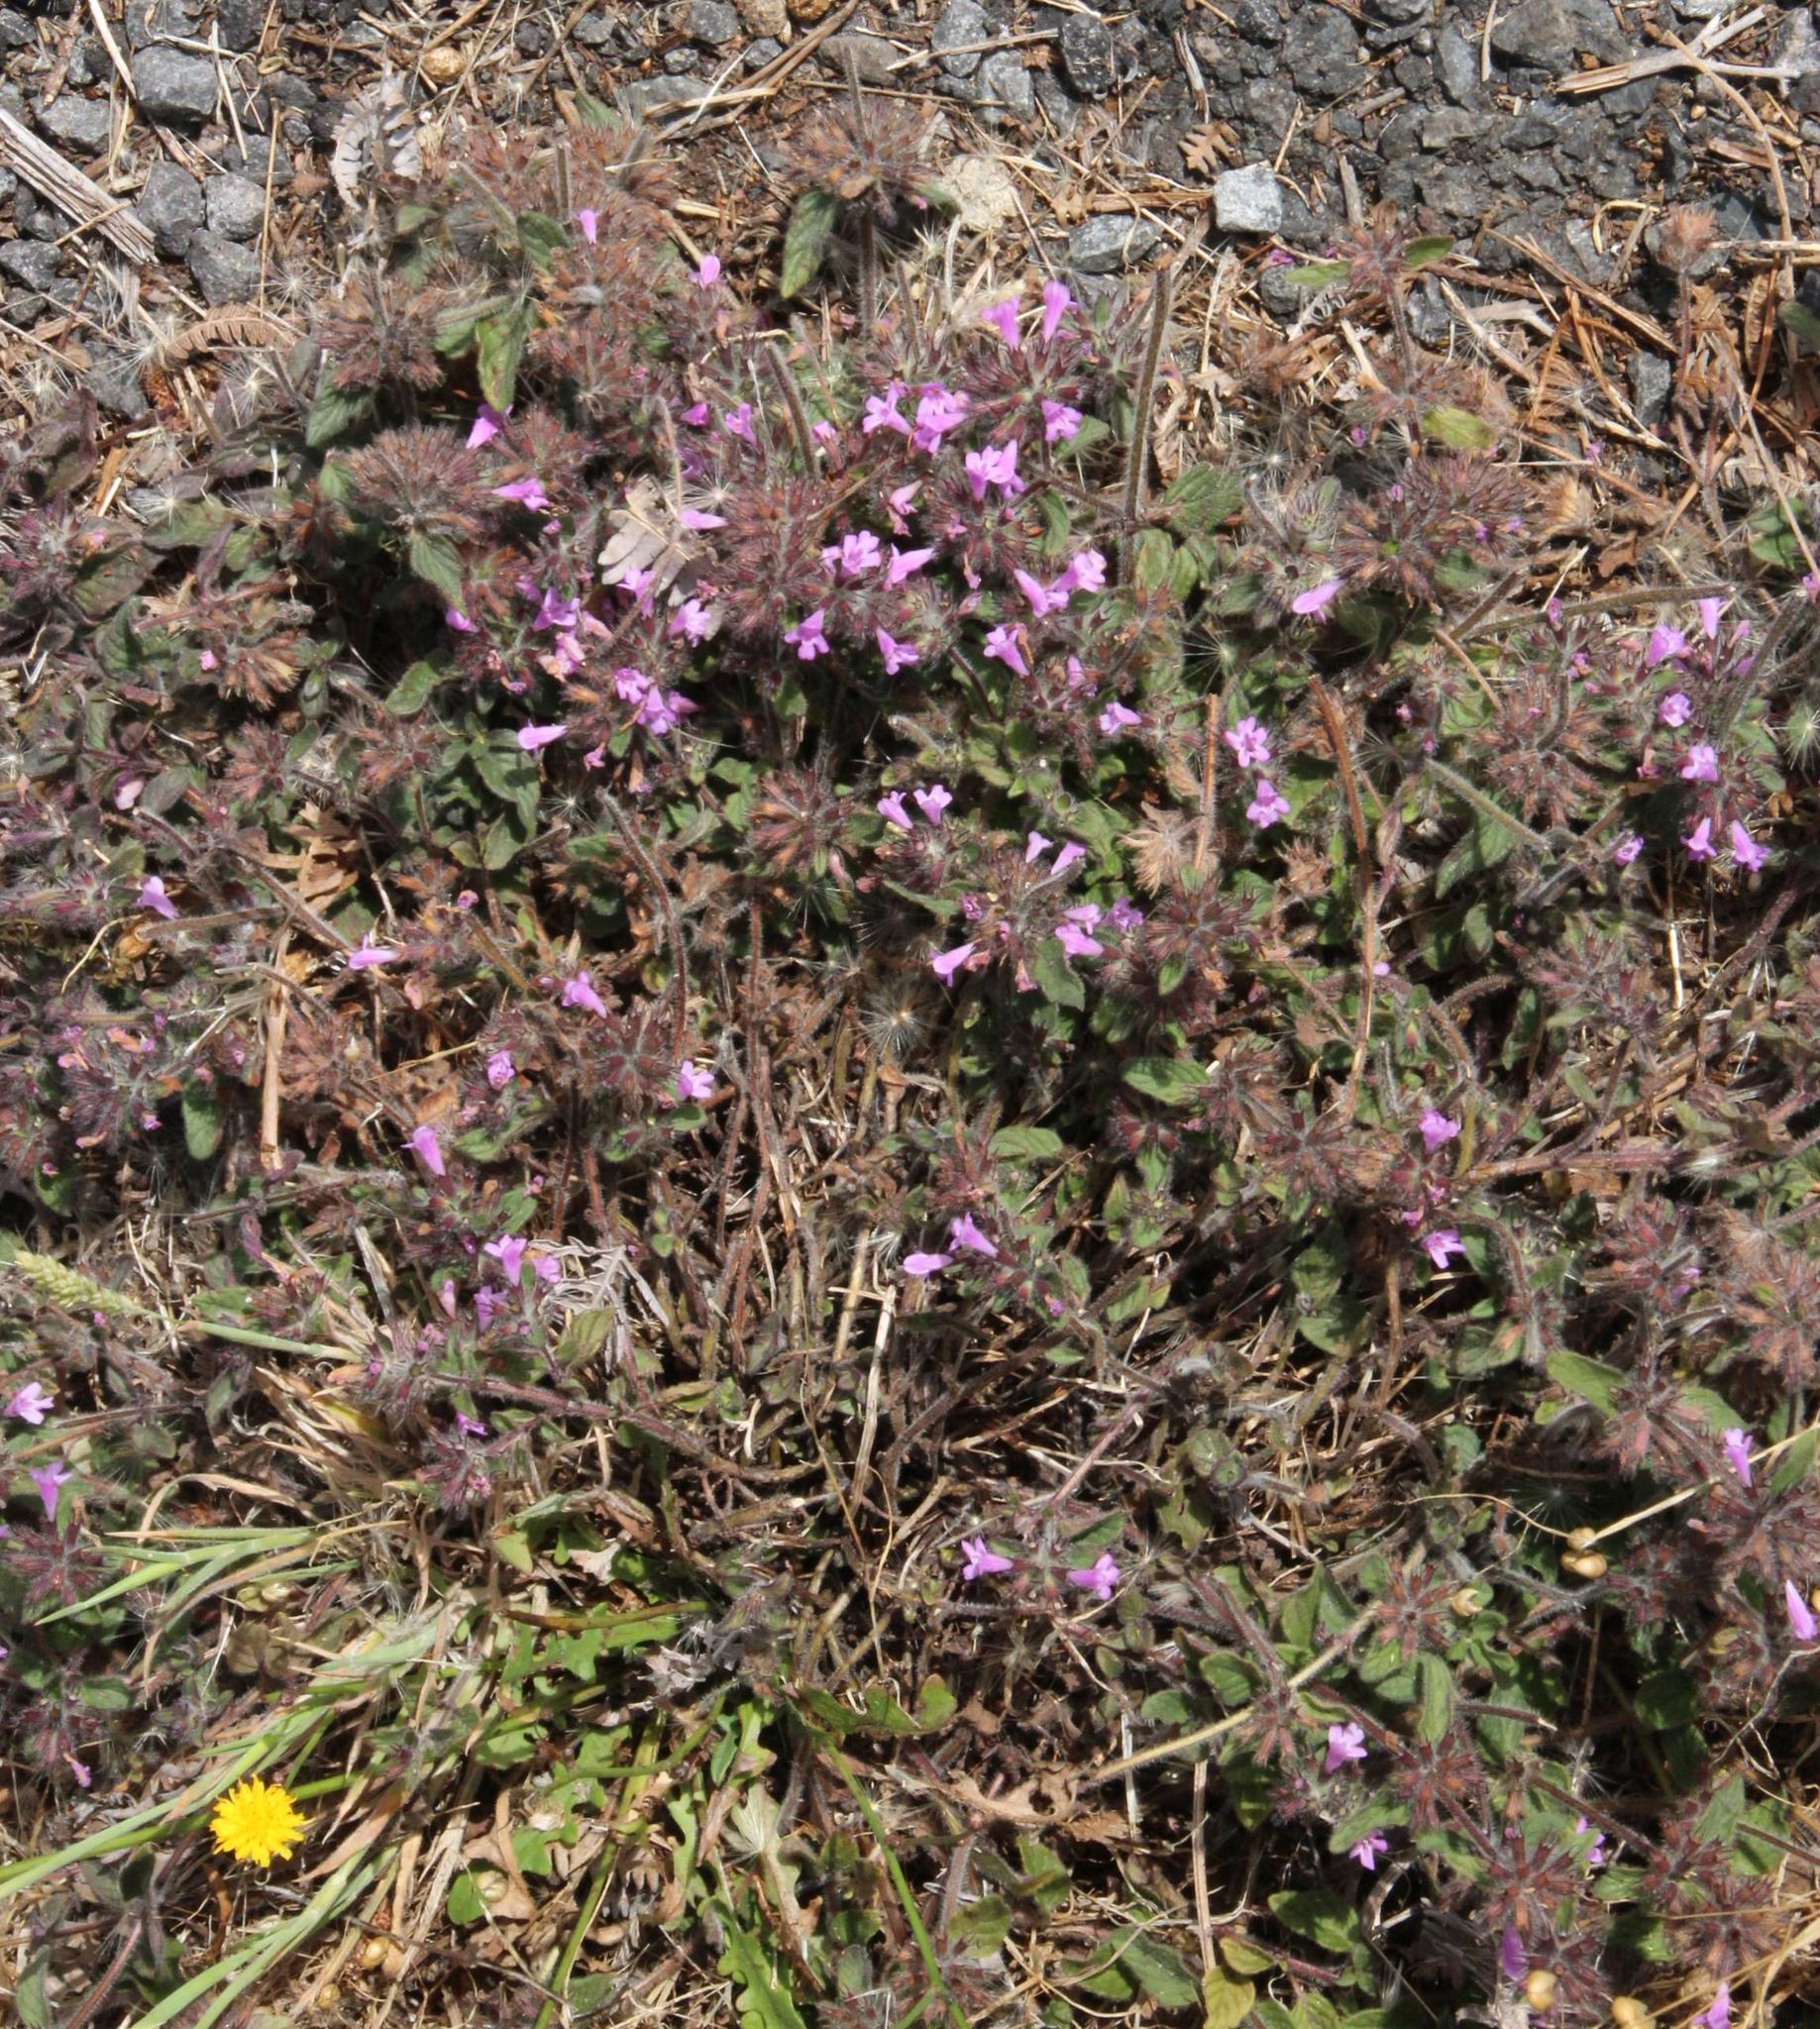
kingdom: Plantae
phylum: Tracheophyta
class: Magnoliopsida
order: Lamiales
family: Lamiaceae
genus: Clinopodium
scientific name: Clinopodium vulgare
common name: Wild basil
